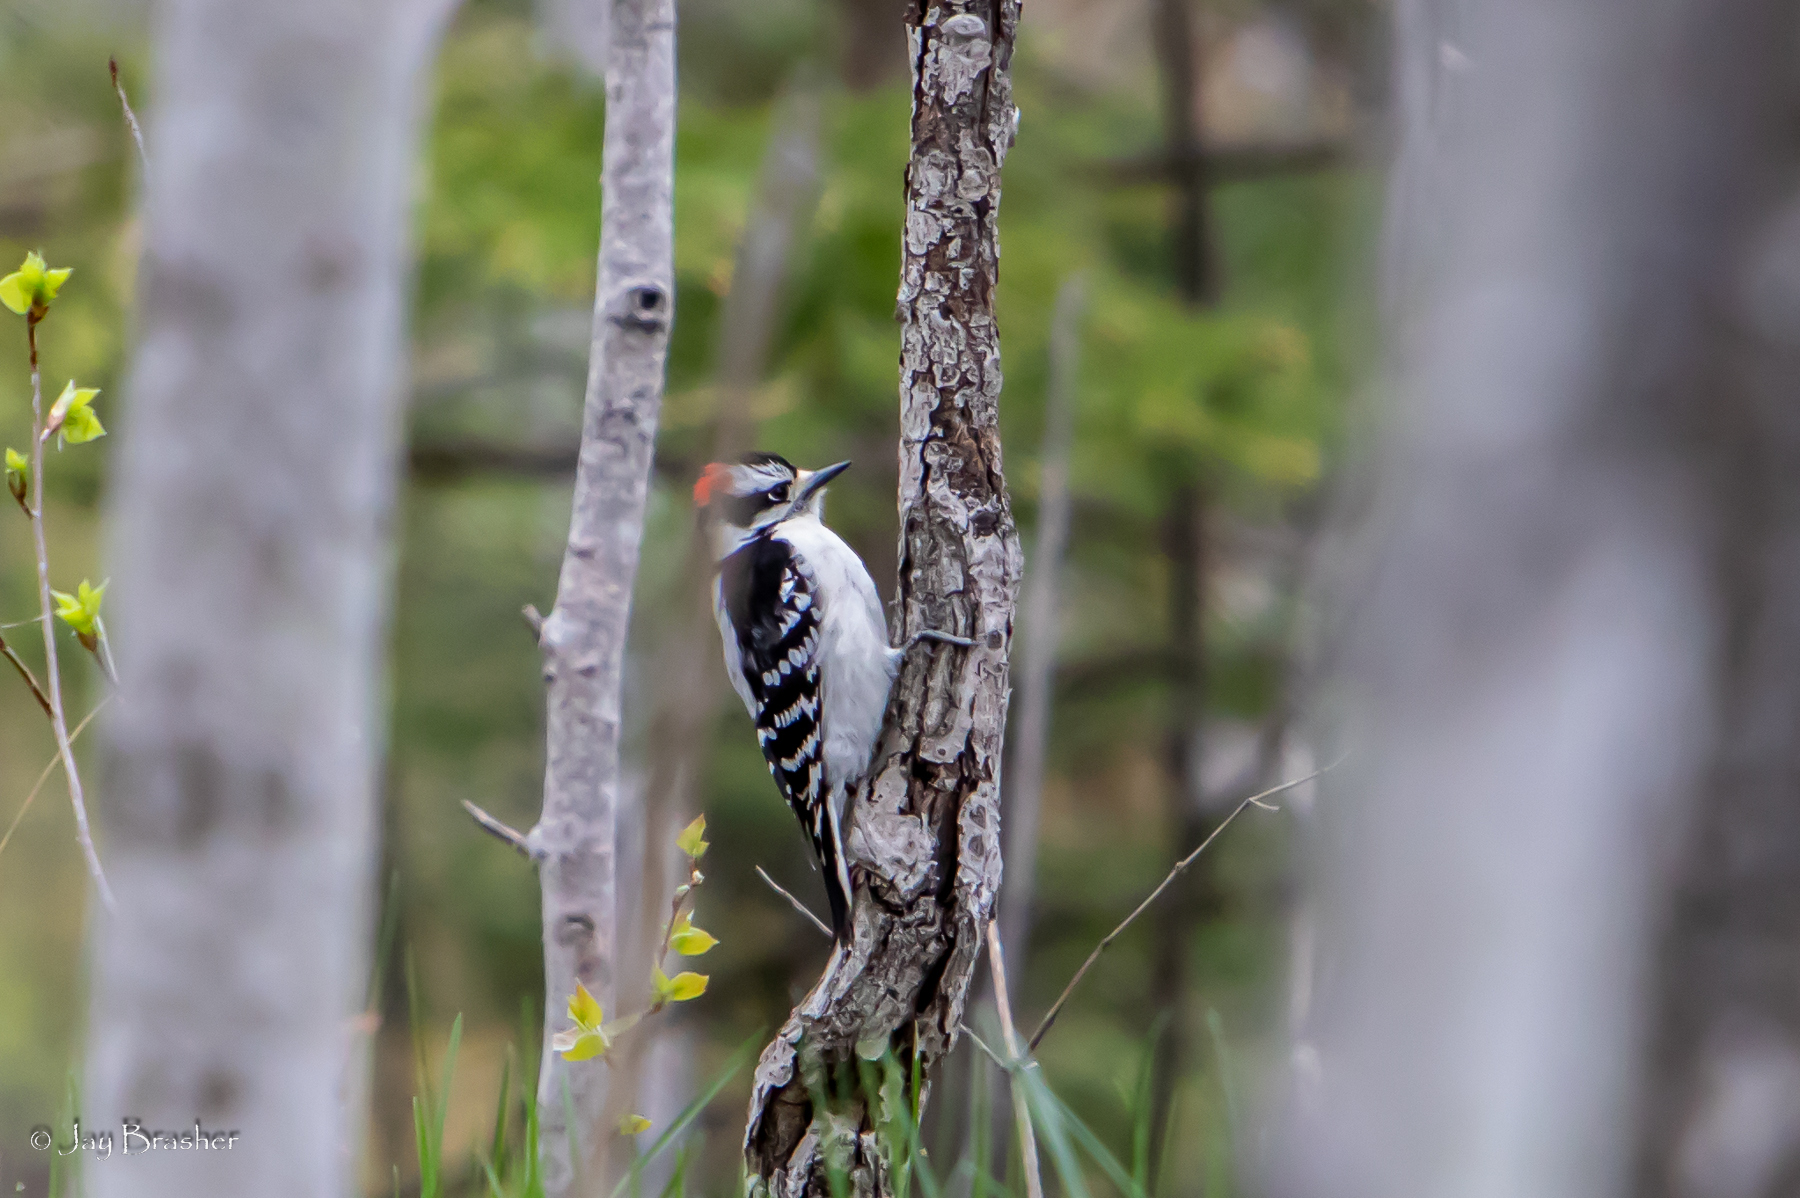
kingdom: Animalia
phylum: Chordata
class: Aves
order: Piciformes
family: Picidae
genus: Dryobates
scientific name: Dryobates pubescens
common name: Downy woodpecker
